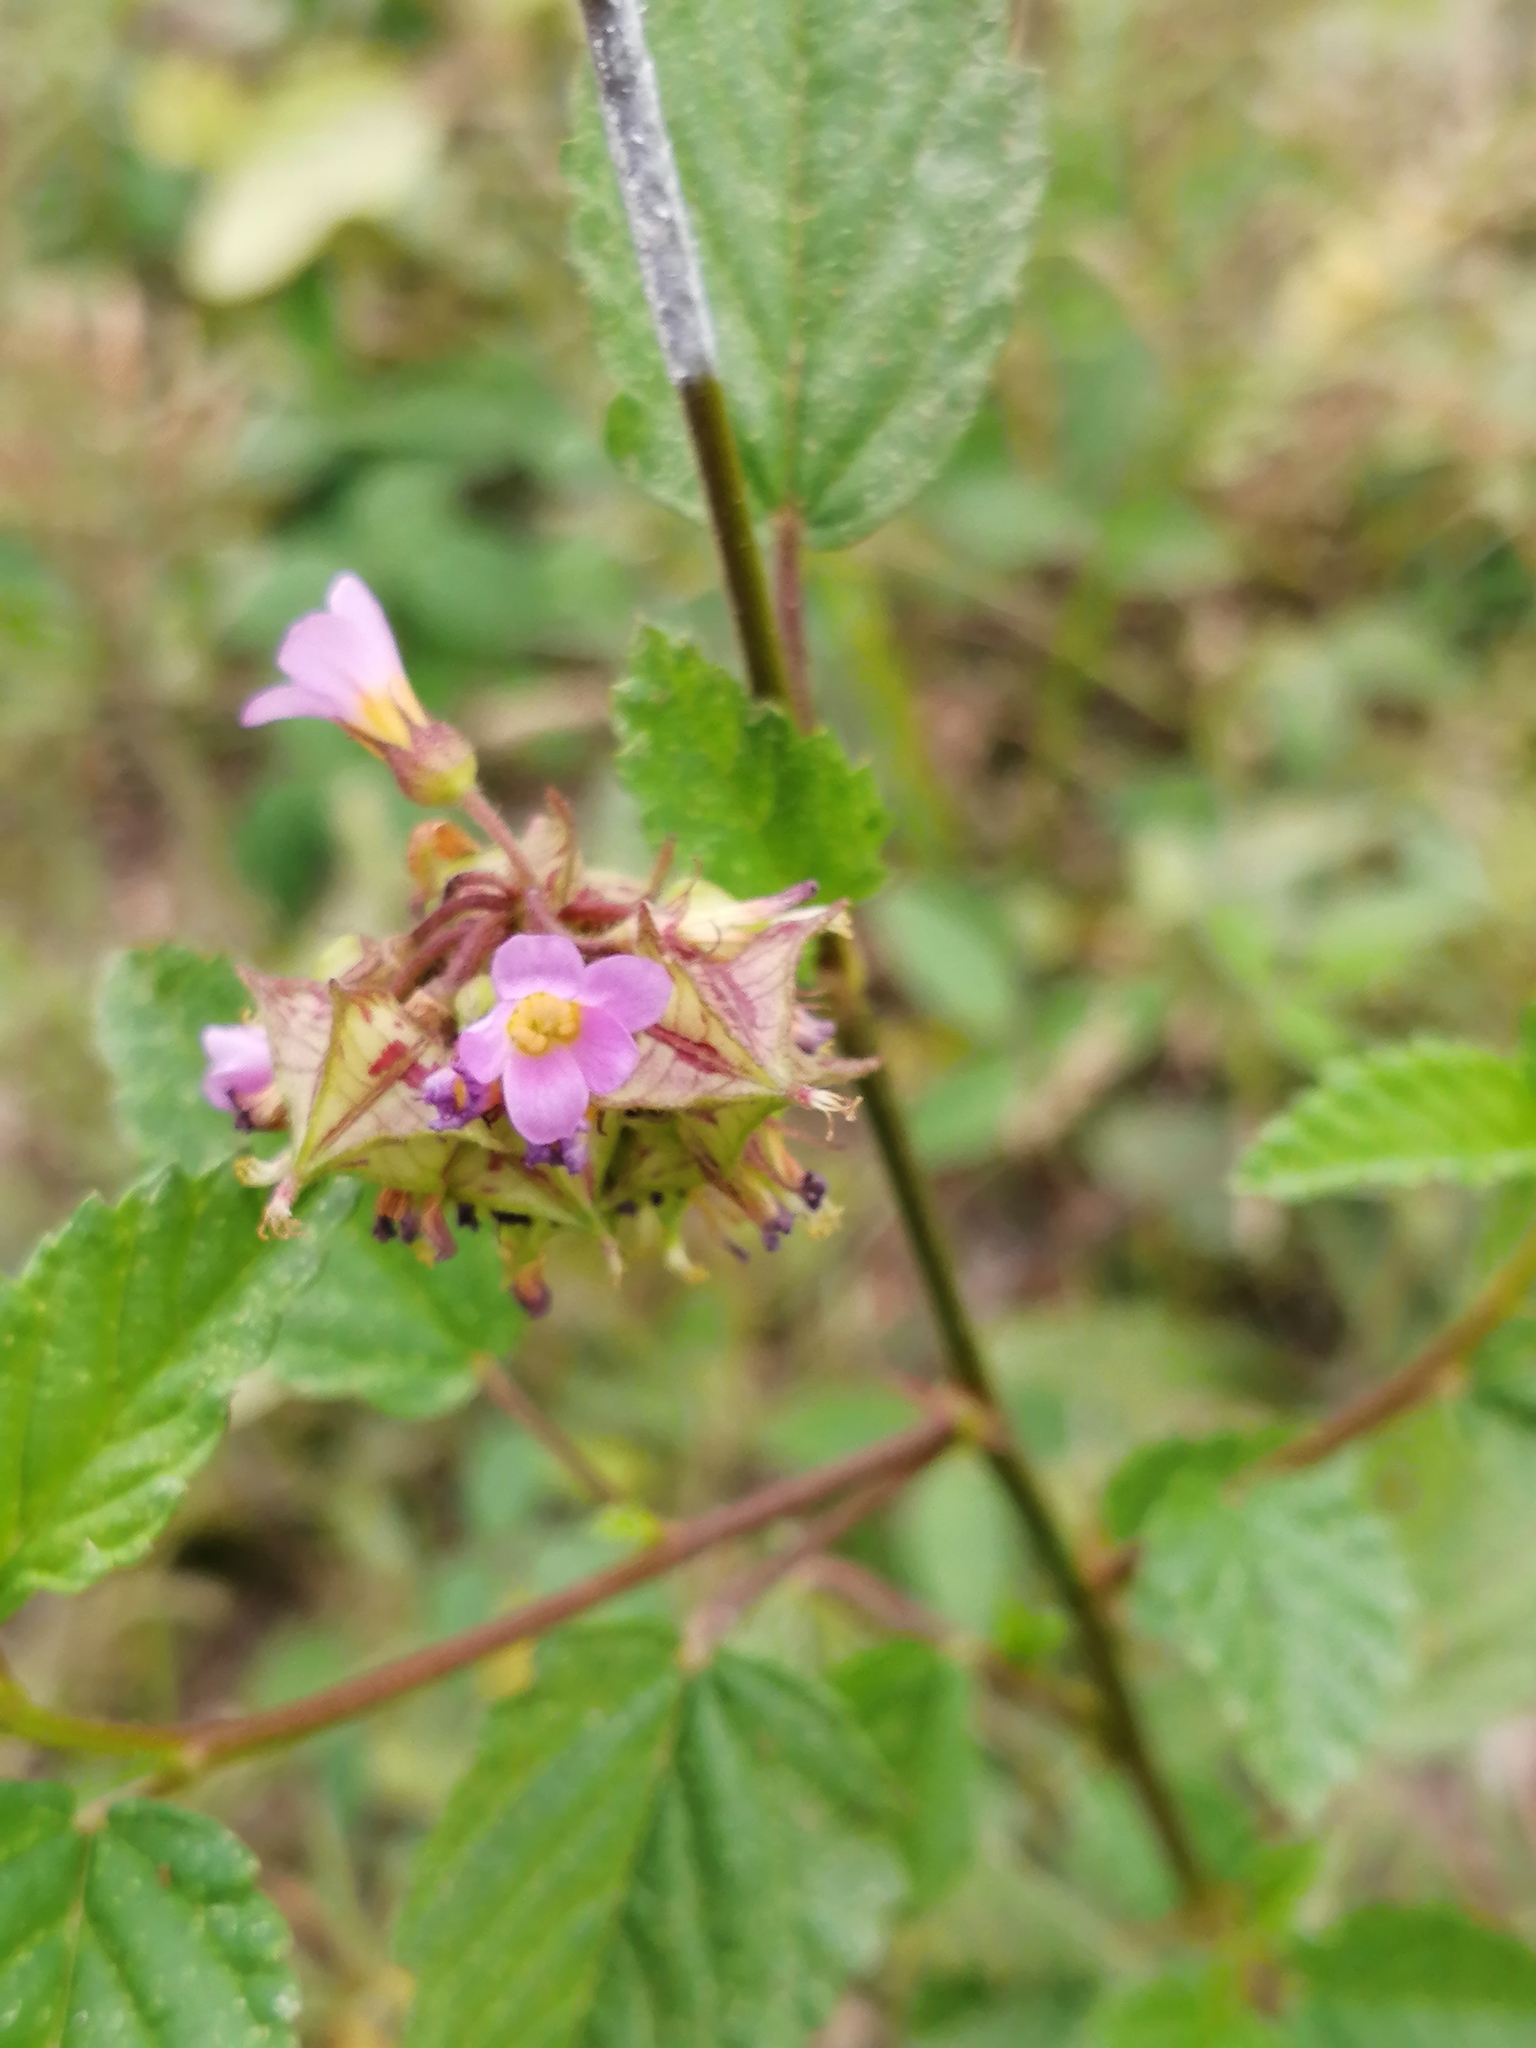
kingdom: Plantae
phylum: Tracheophyta
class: Magnoliopsida
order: Malvales
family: Malvaceae
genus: Melochia
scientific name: Melochia pyramidata
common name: Pyramidflower
